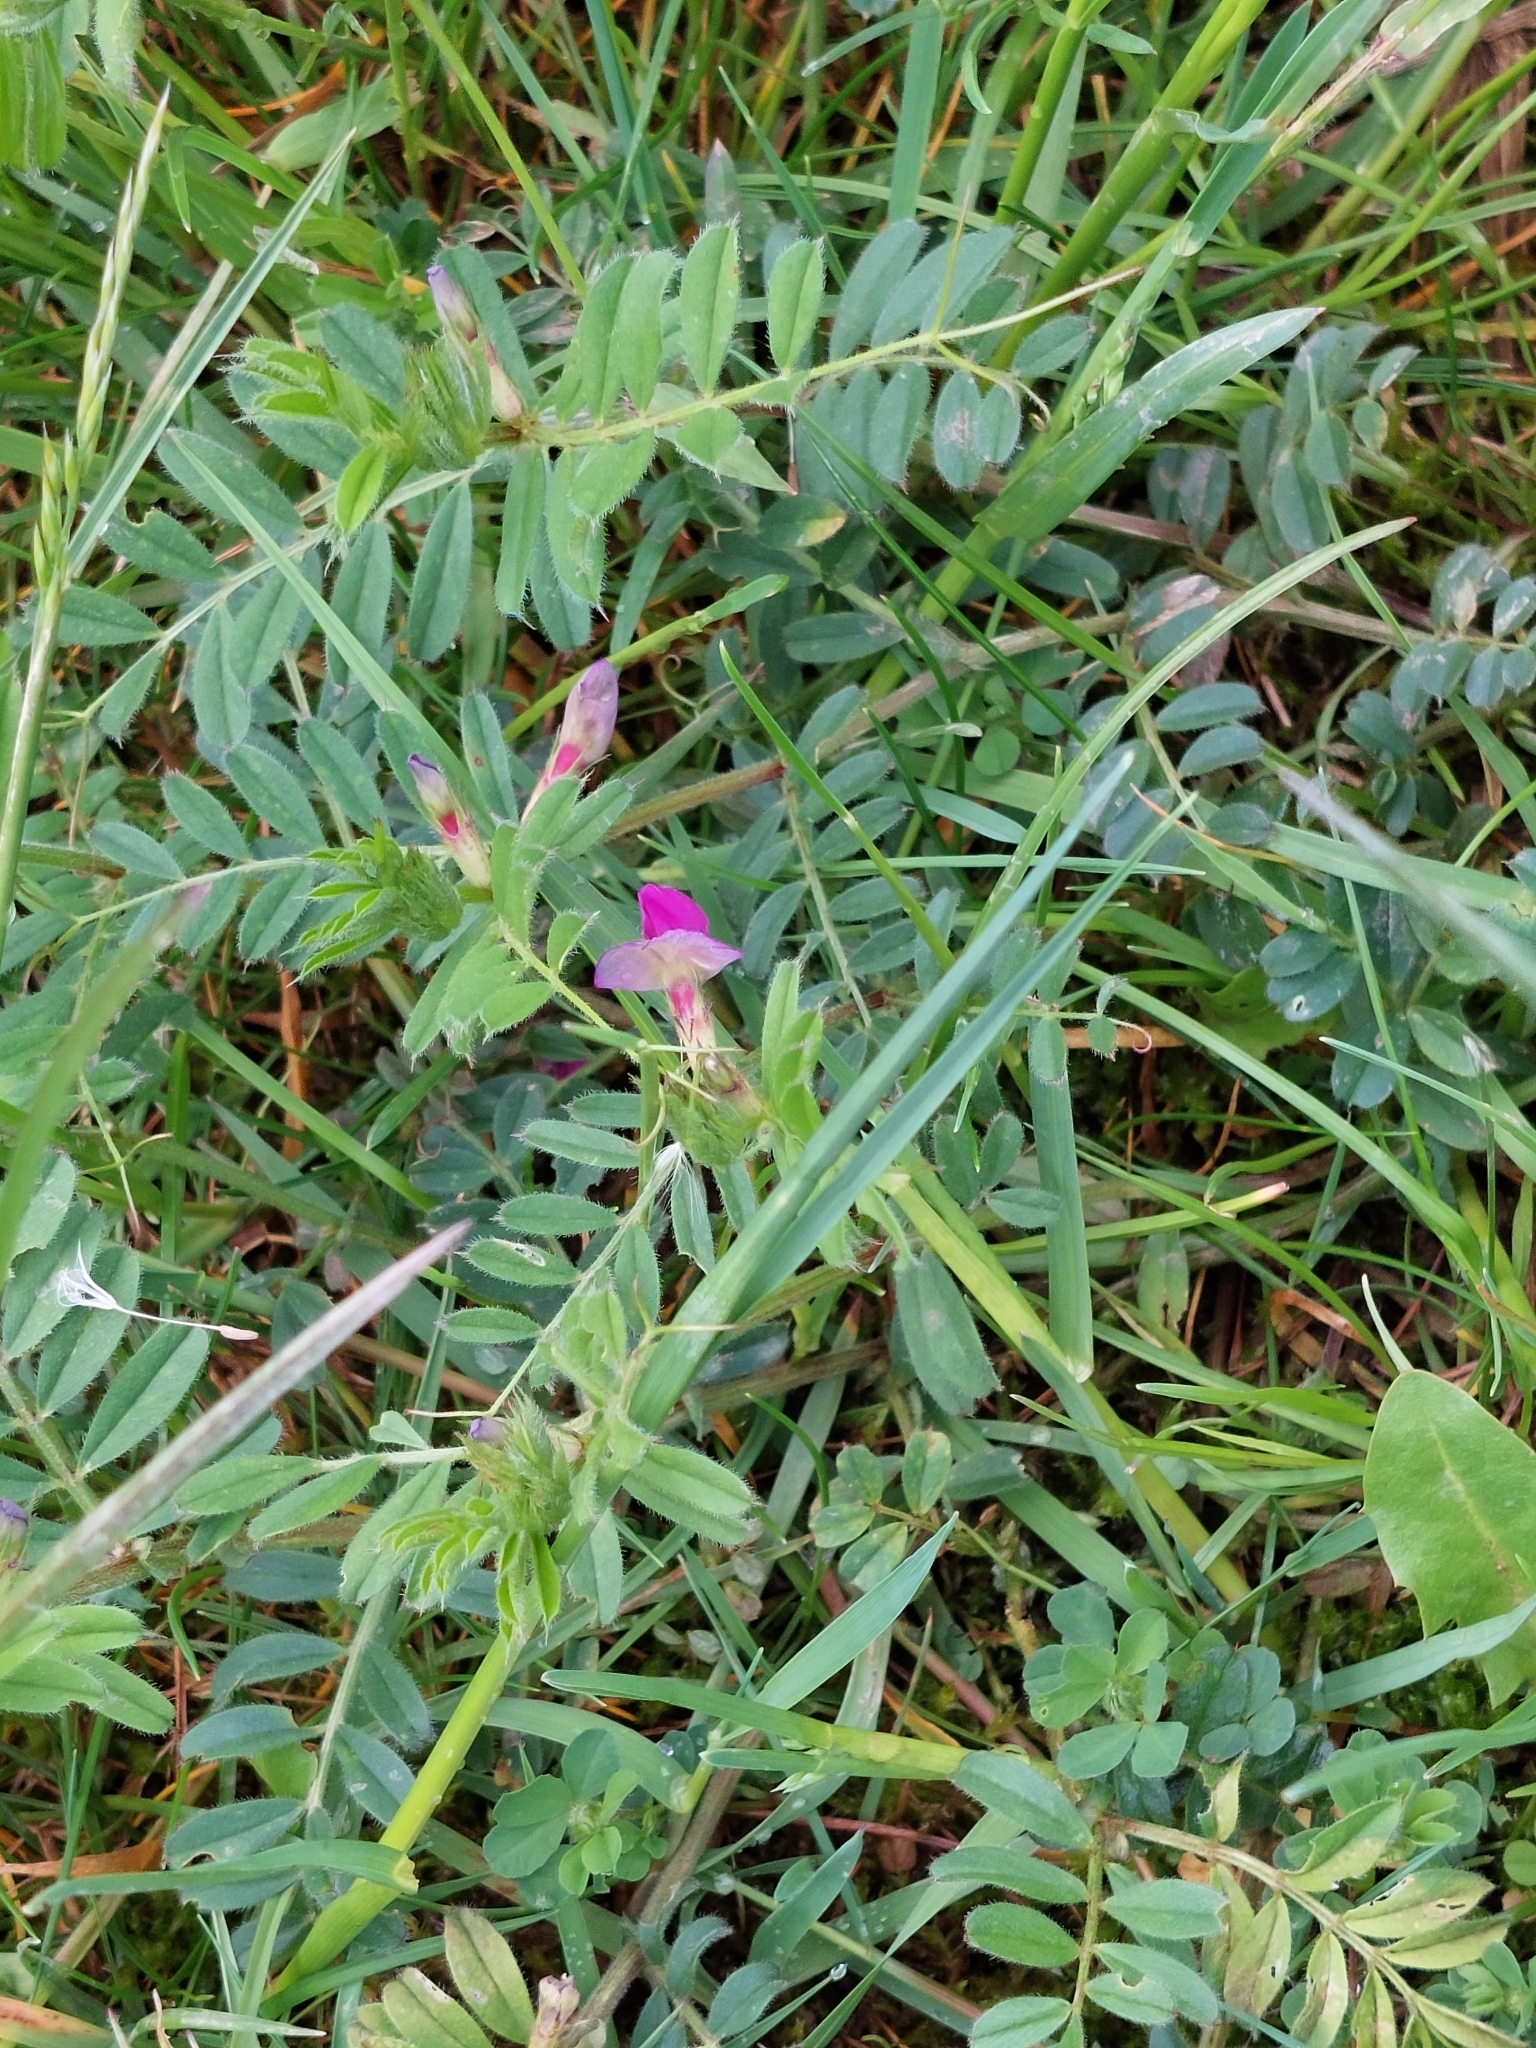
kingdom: Plantae
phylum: Tracheophyta
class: Magnoliopsida
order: Fabales
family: Fabaceae
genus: Vicia
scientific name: Vicia sativa
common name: Garden vetch
